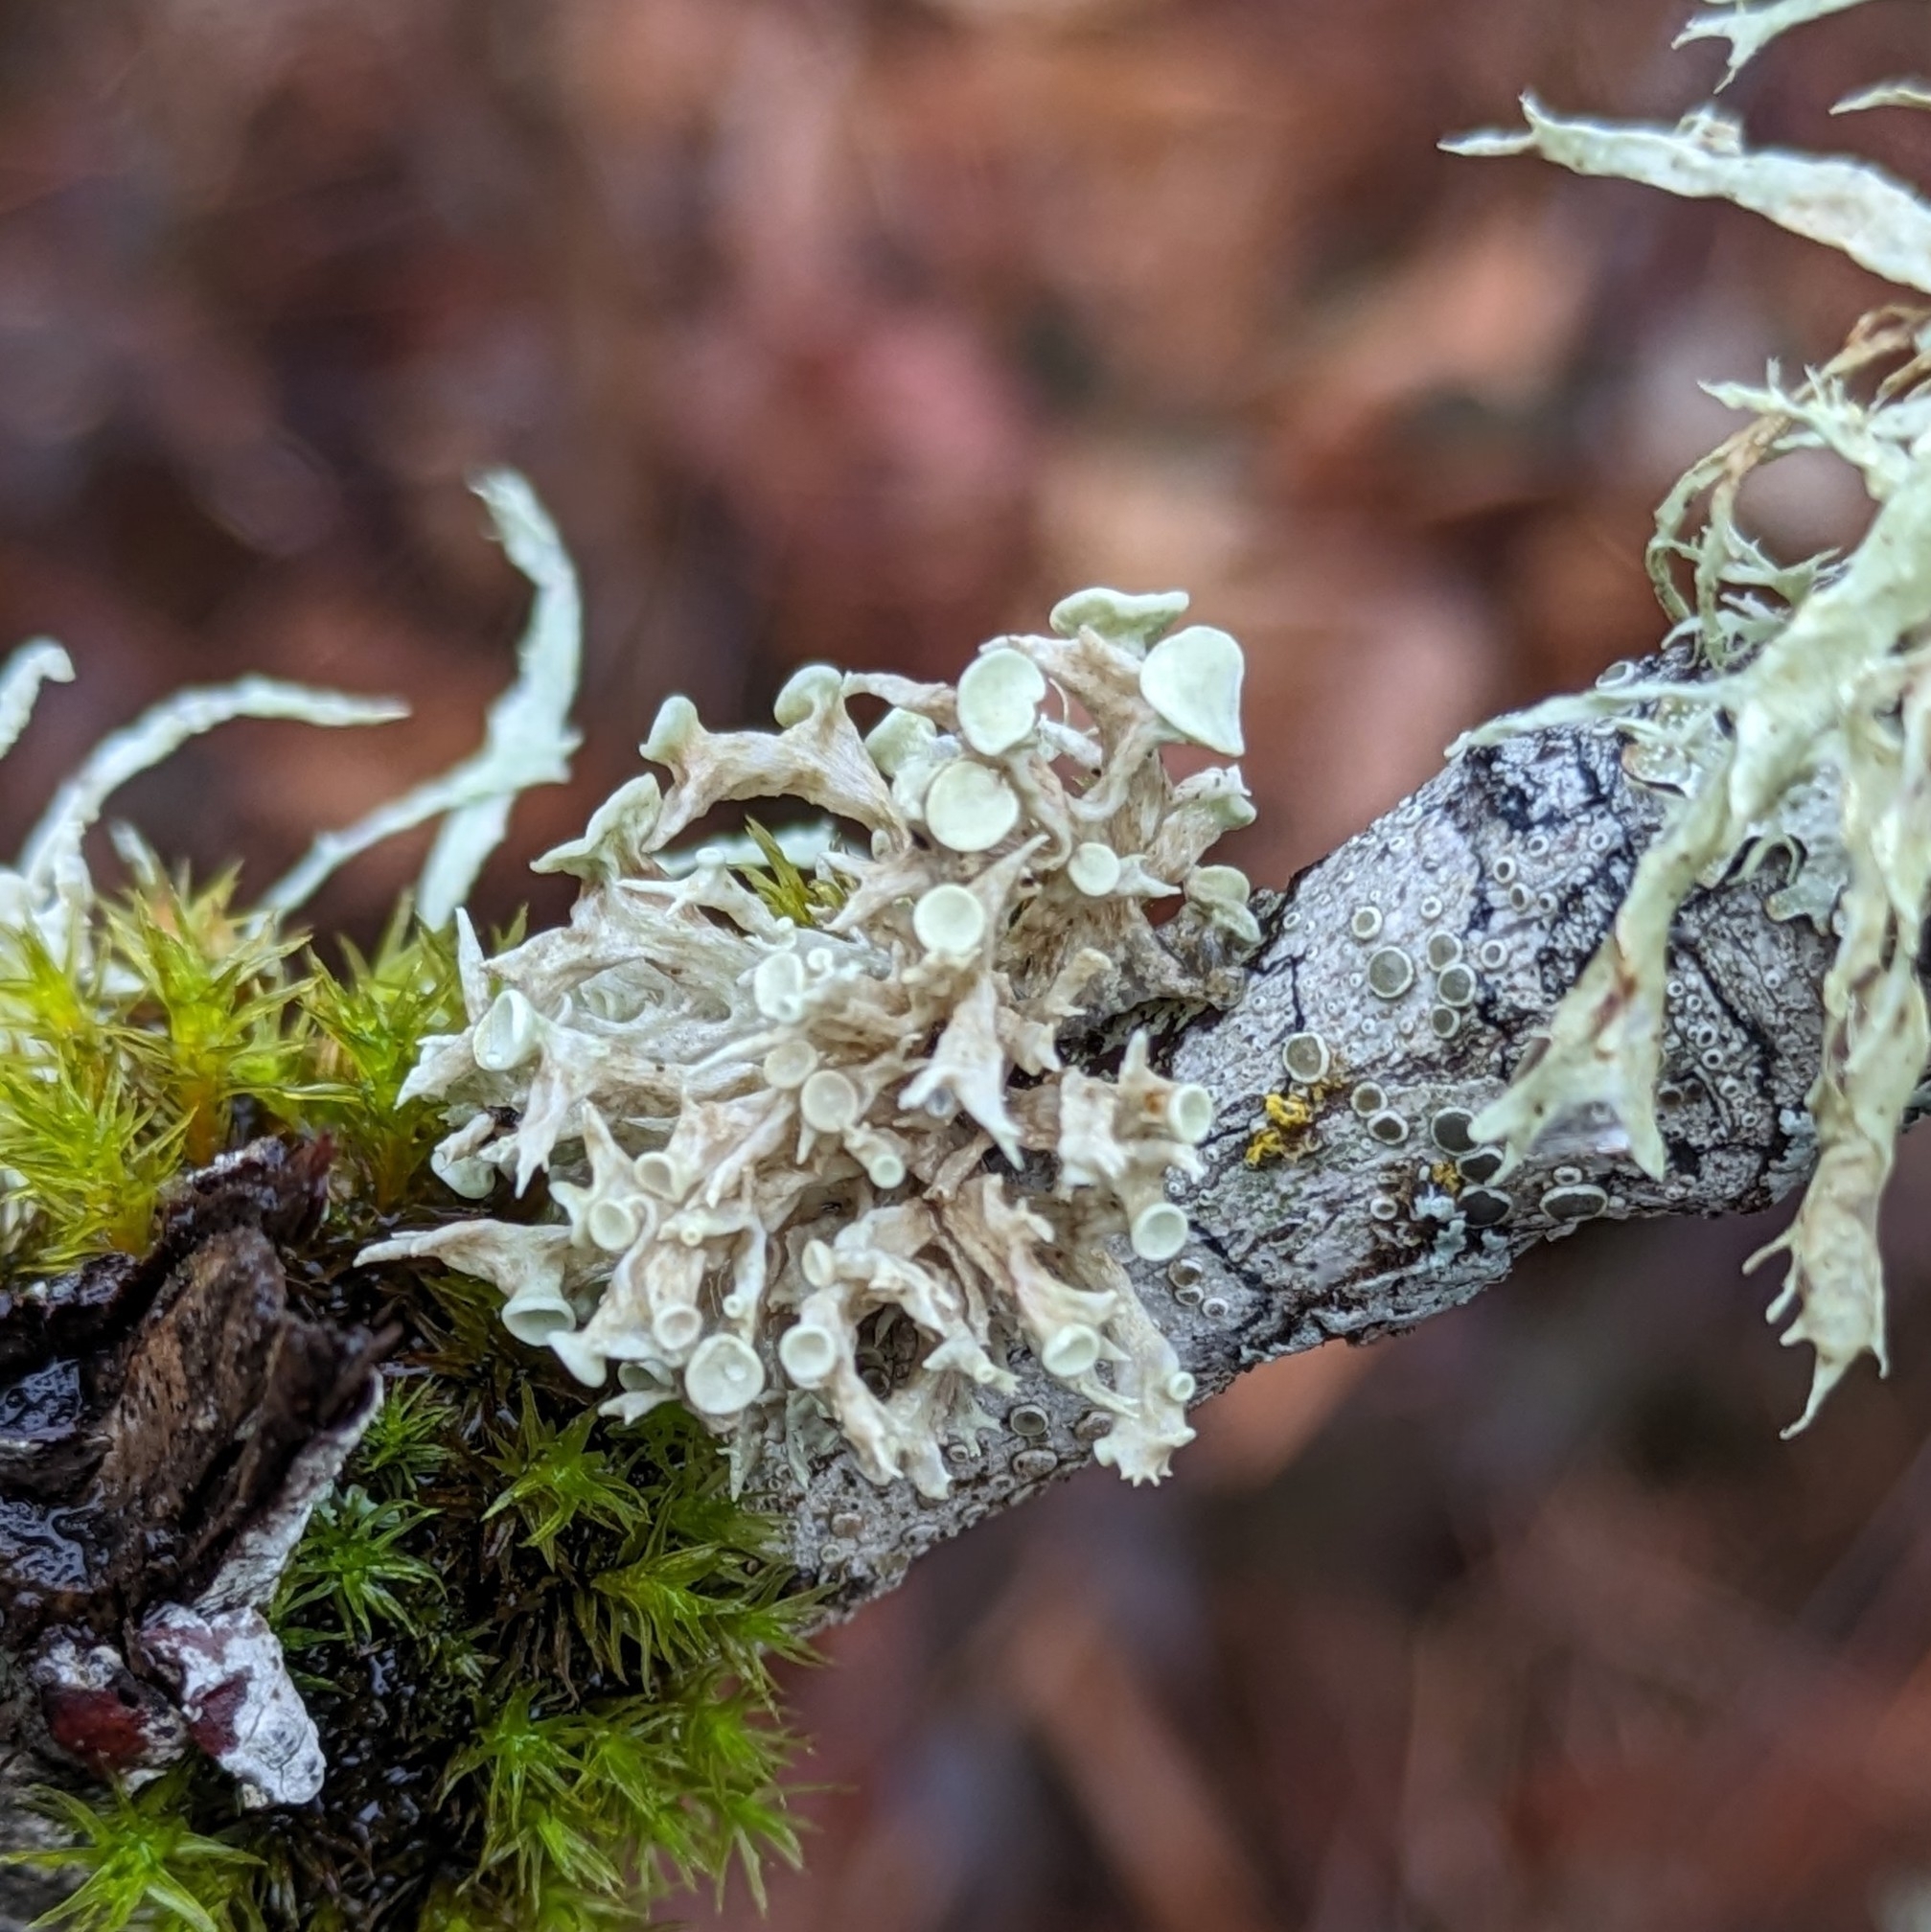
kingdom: Fungi
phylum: Ascomycota
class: Lecanoromycetes
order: Lecanorales
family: Ramalinaceae
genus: Ramalina
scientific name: Ramalina dilacerata
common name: Punctured bushy lichen
